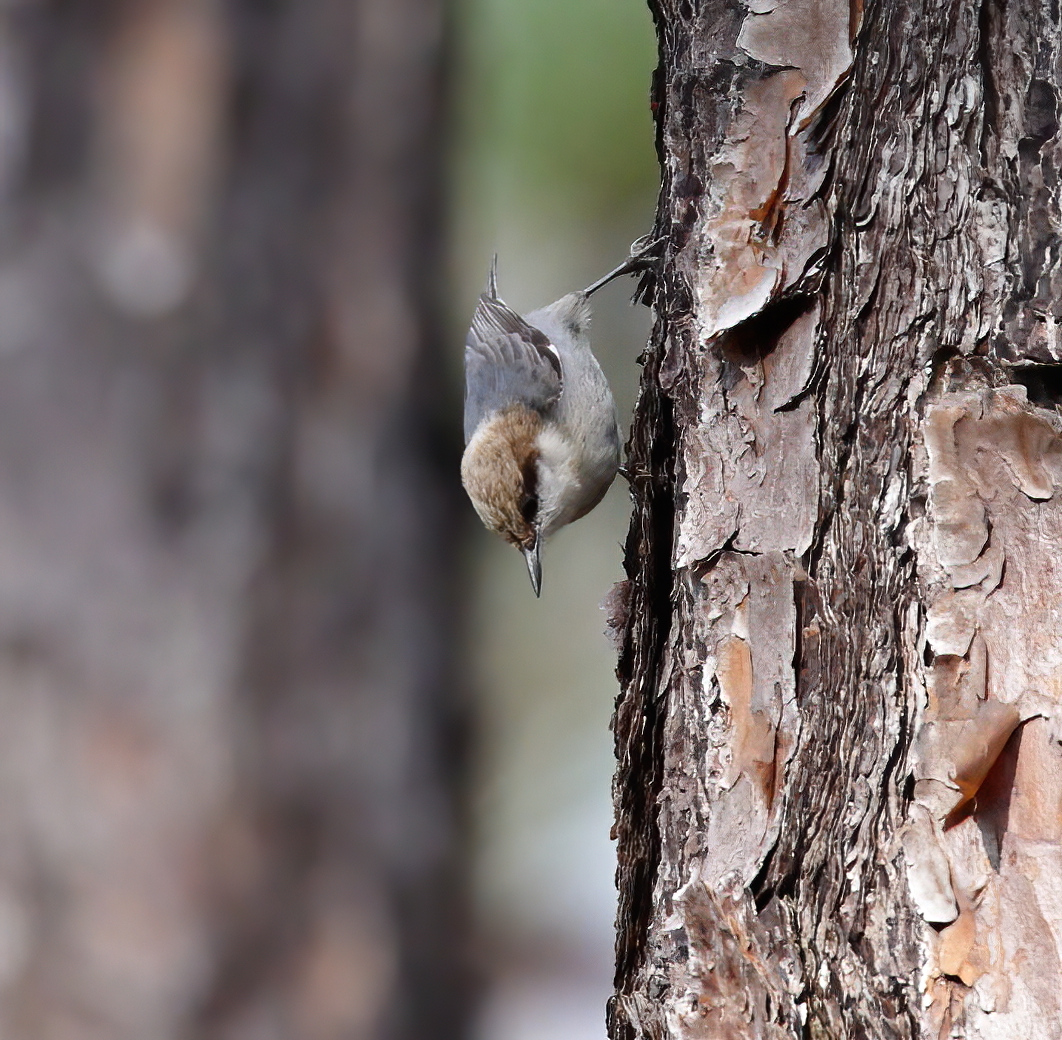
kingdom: Animalia
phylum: Chordata
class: Aves
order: Passeriformes
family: Sittidae
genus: Sitta
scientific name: Sitta pusilla
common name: Brown-headed nuthatch
